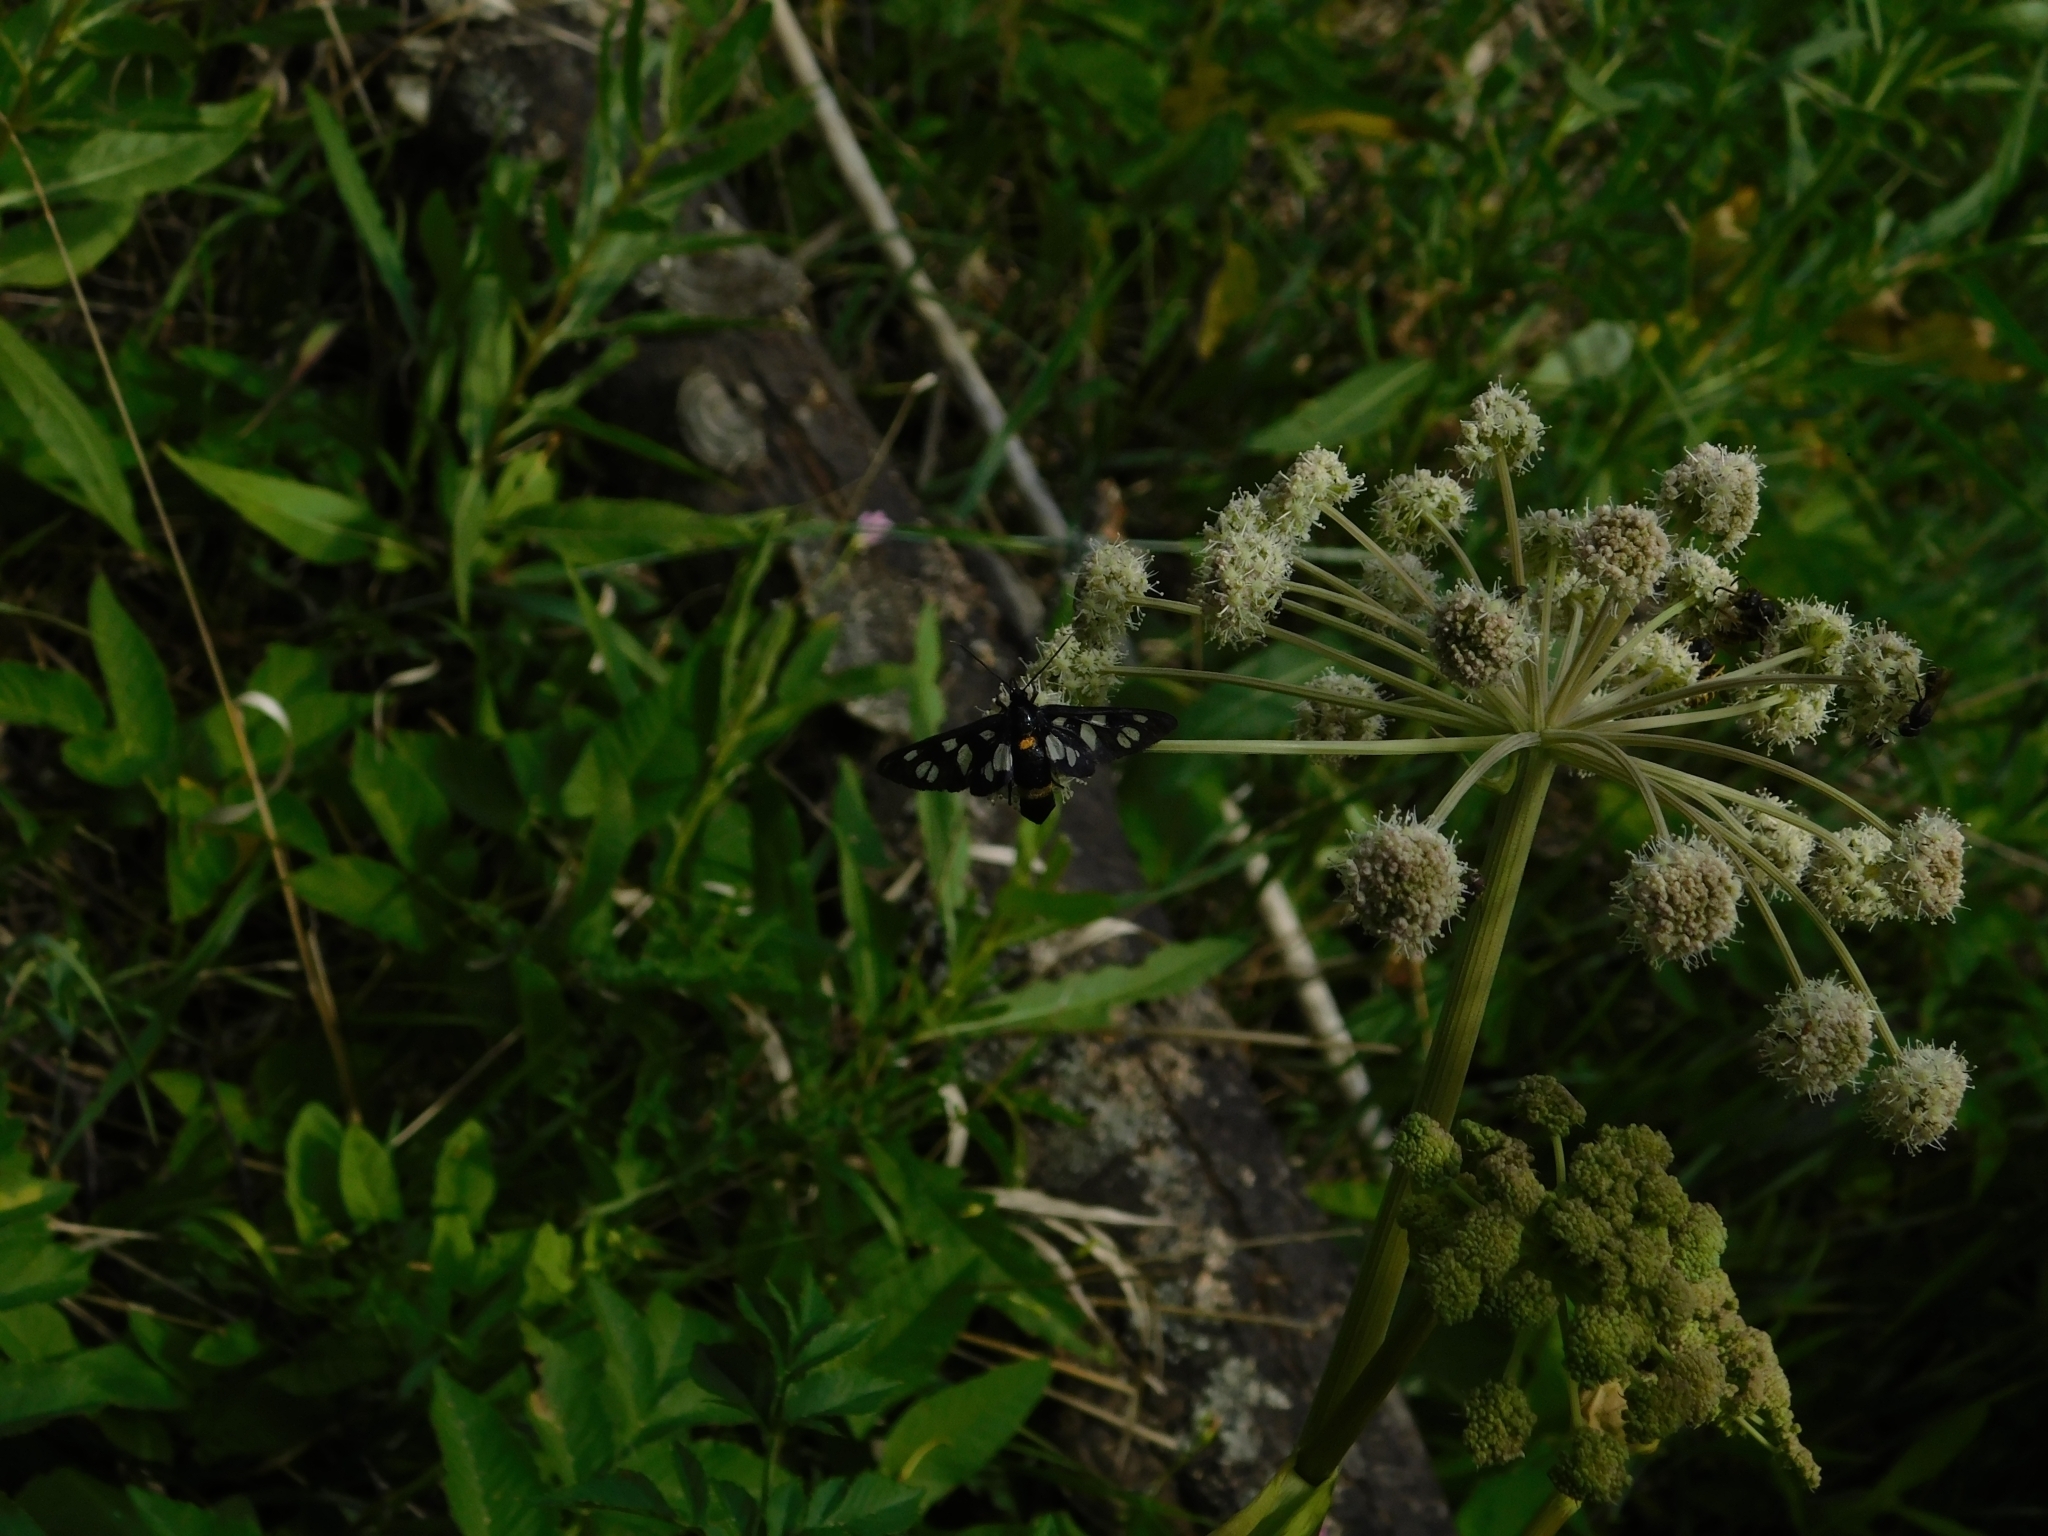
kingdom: Animalia
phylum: Arthropoda
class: Insecta
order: Lepidoptera
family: Erebidae
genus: Amata
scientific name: Amata nigricornis
